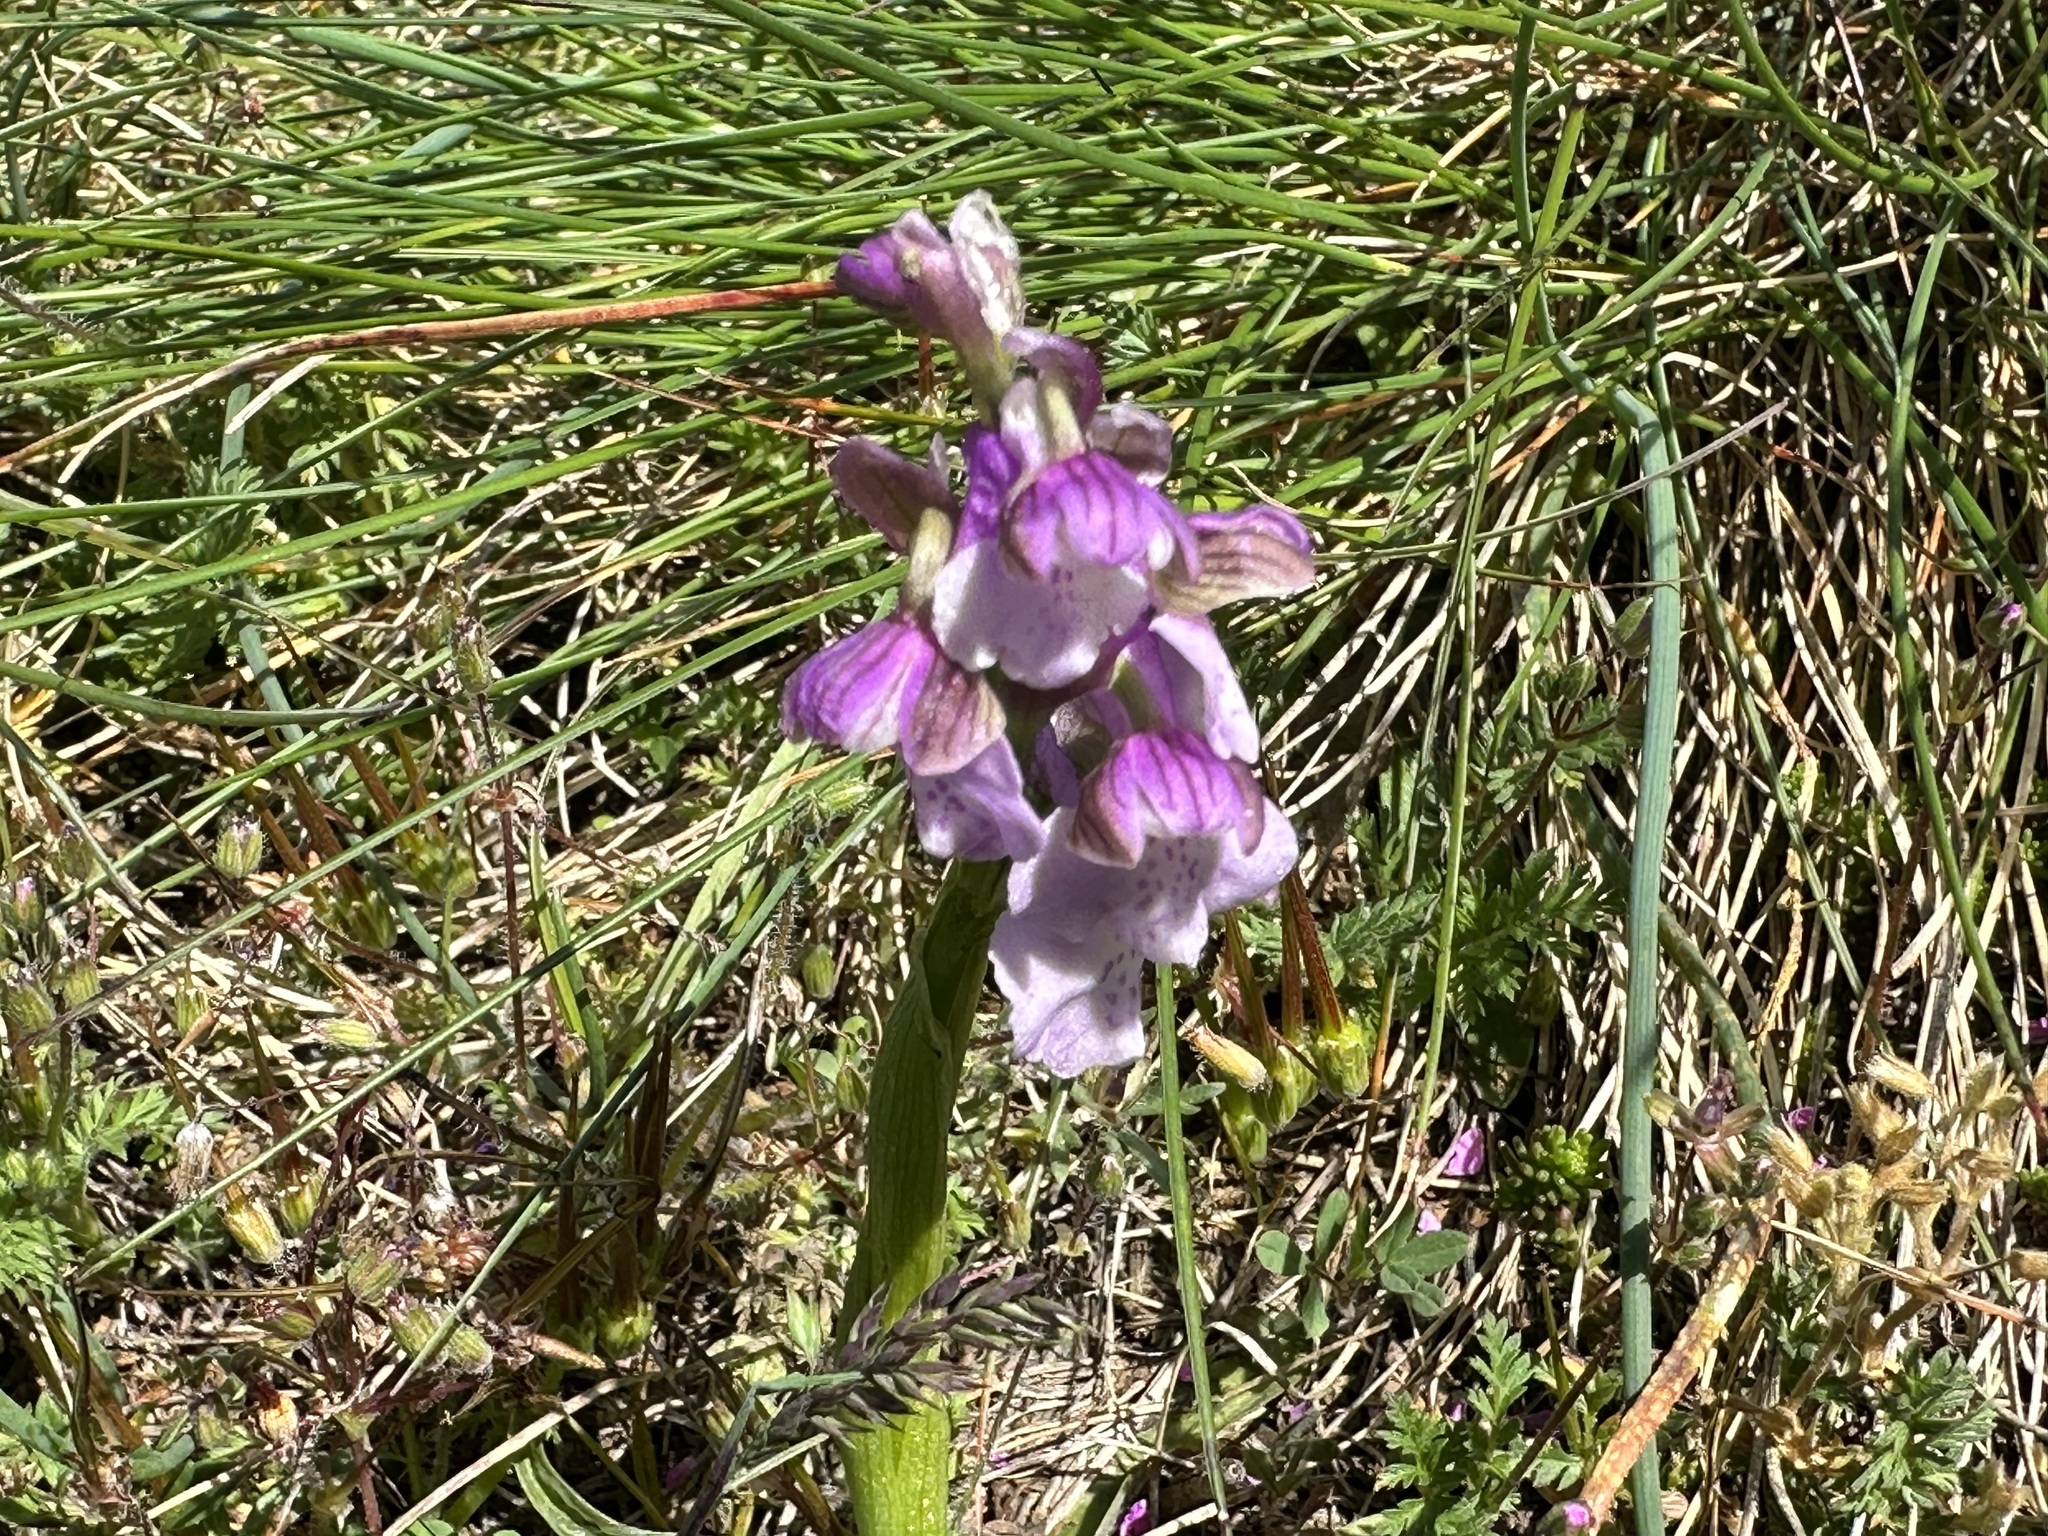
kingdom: Plantae
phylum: Tracheophyta
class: Liliopsida
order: Asparagales
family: Orchidaceae
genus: Anacamptis
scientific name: Anacamptis morio
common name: Green-winged orchid
